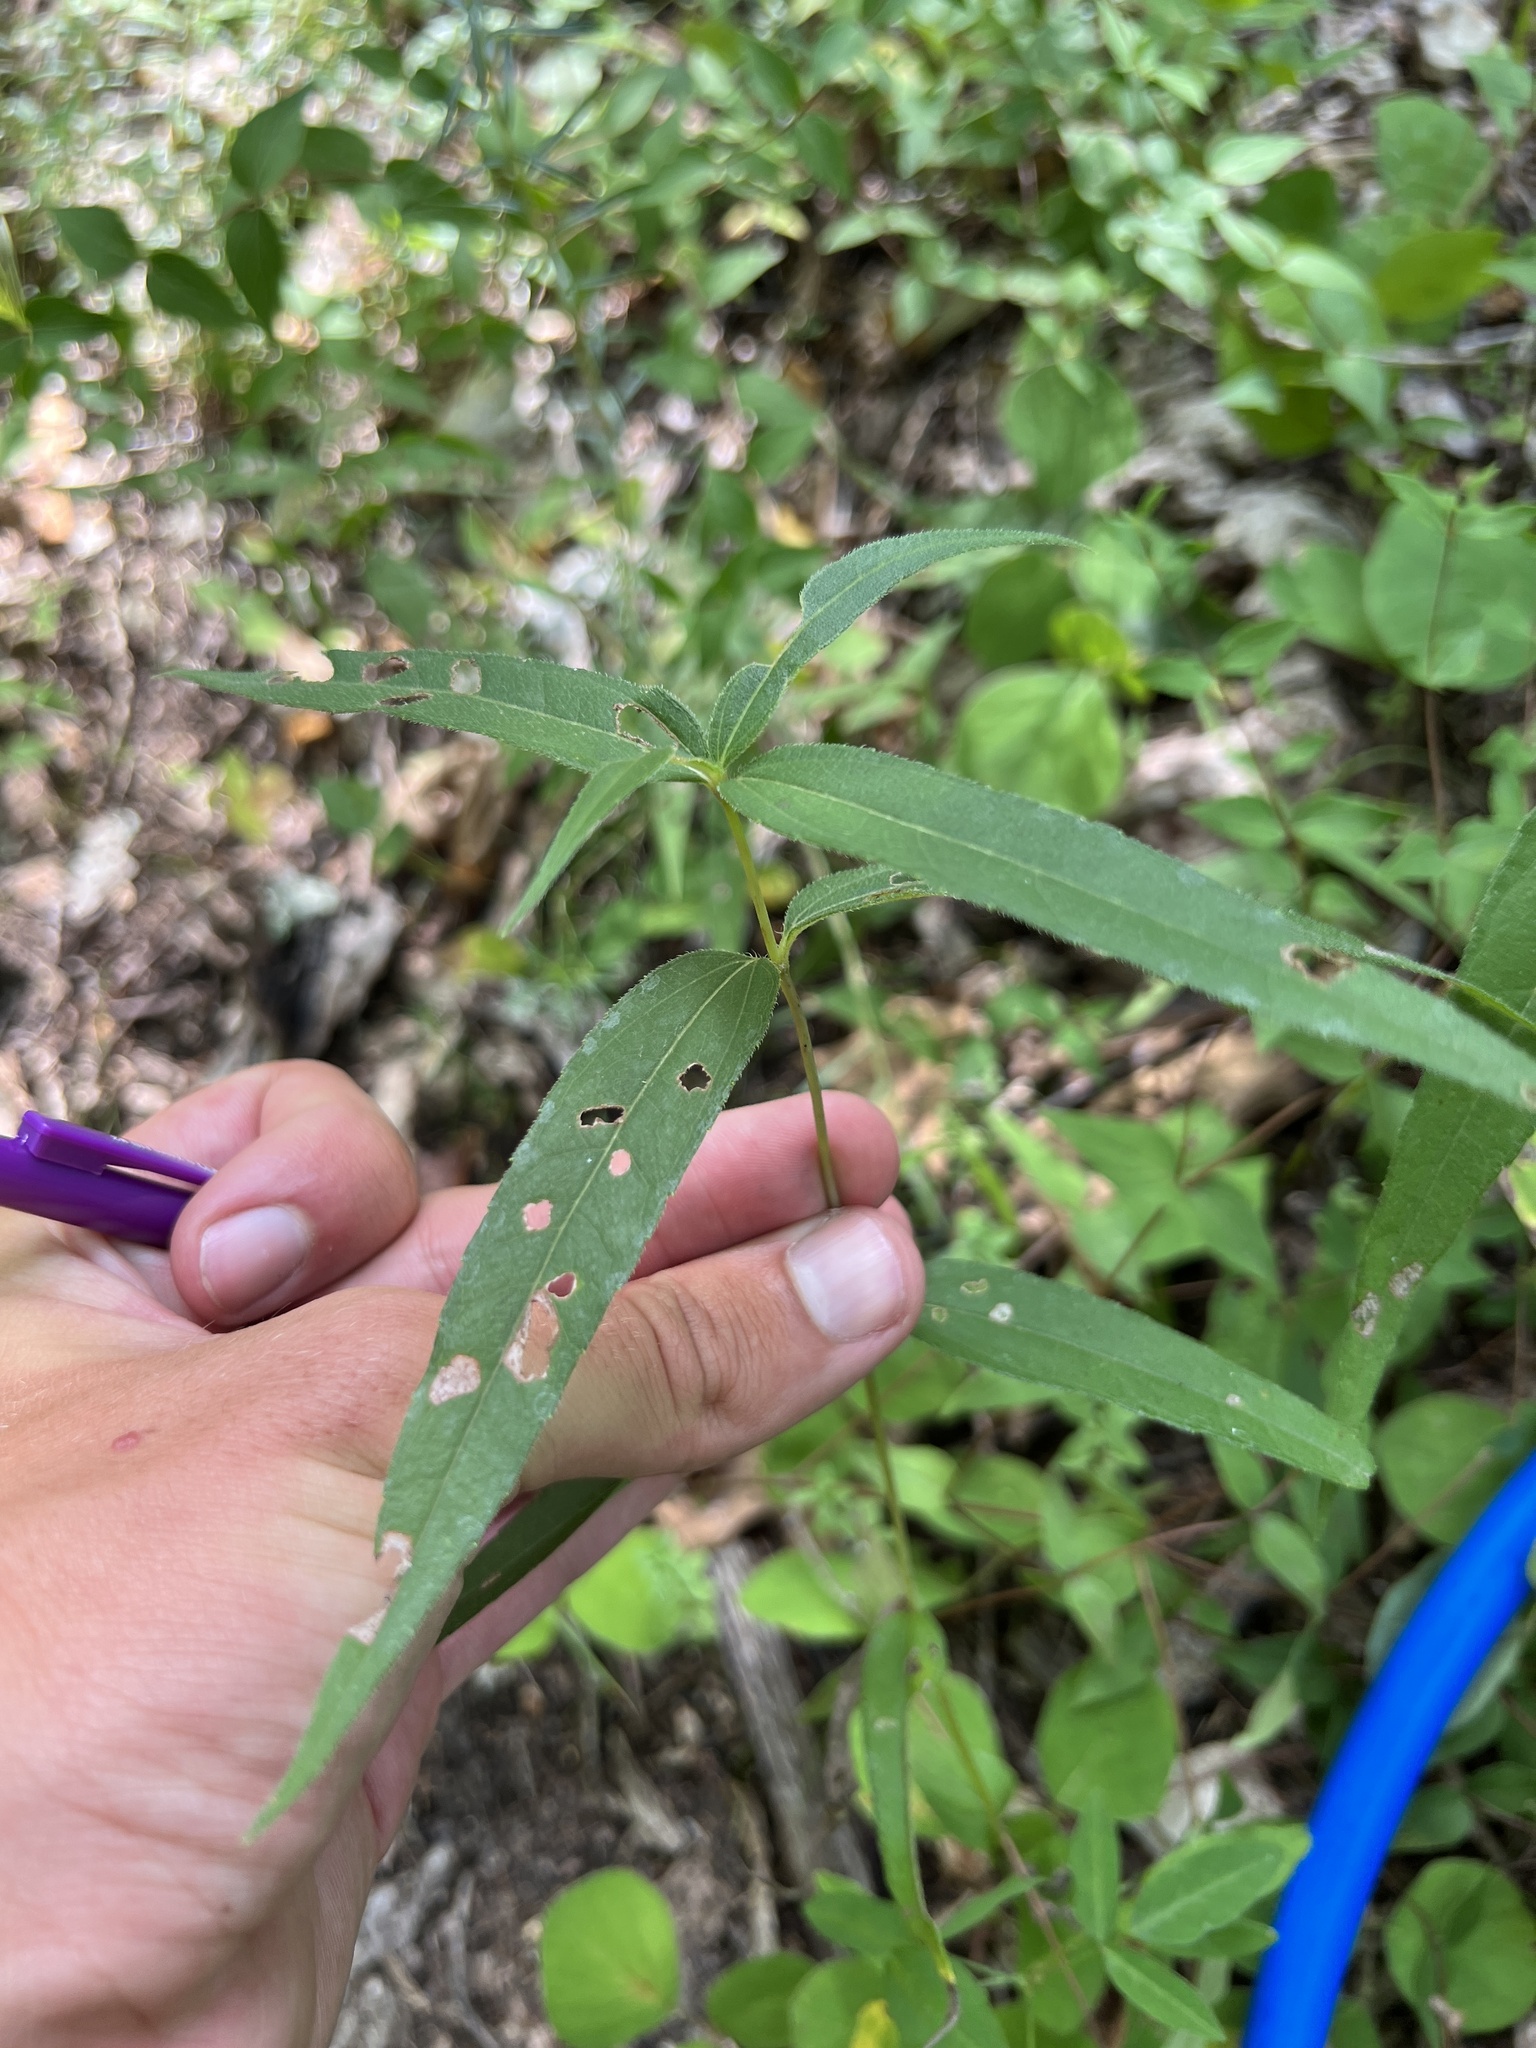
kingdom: Plantae
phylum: Tracheophyta
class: Magnoliopsida
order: Asterales
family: Asteraceae
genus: Helianthus
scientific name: Helianthus hirsutus
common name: Hairy sunflower
